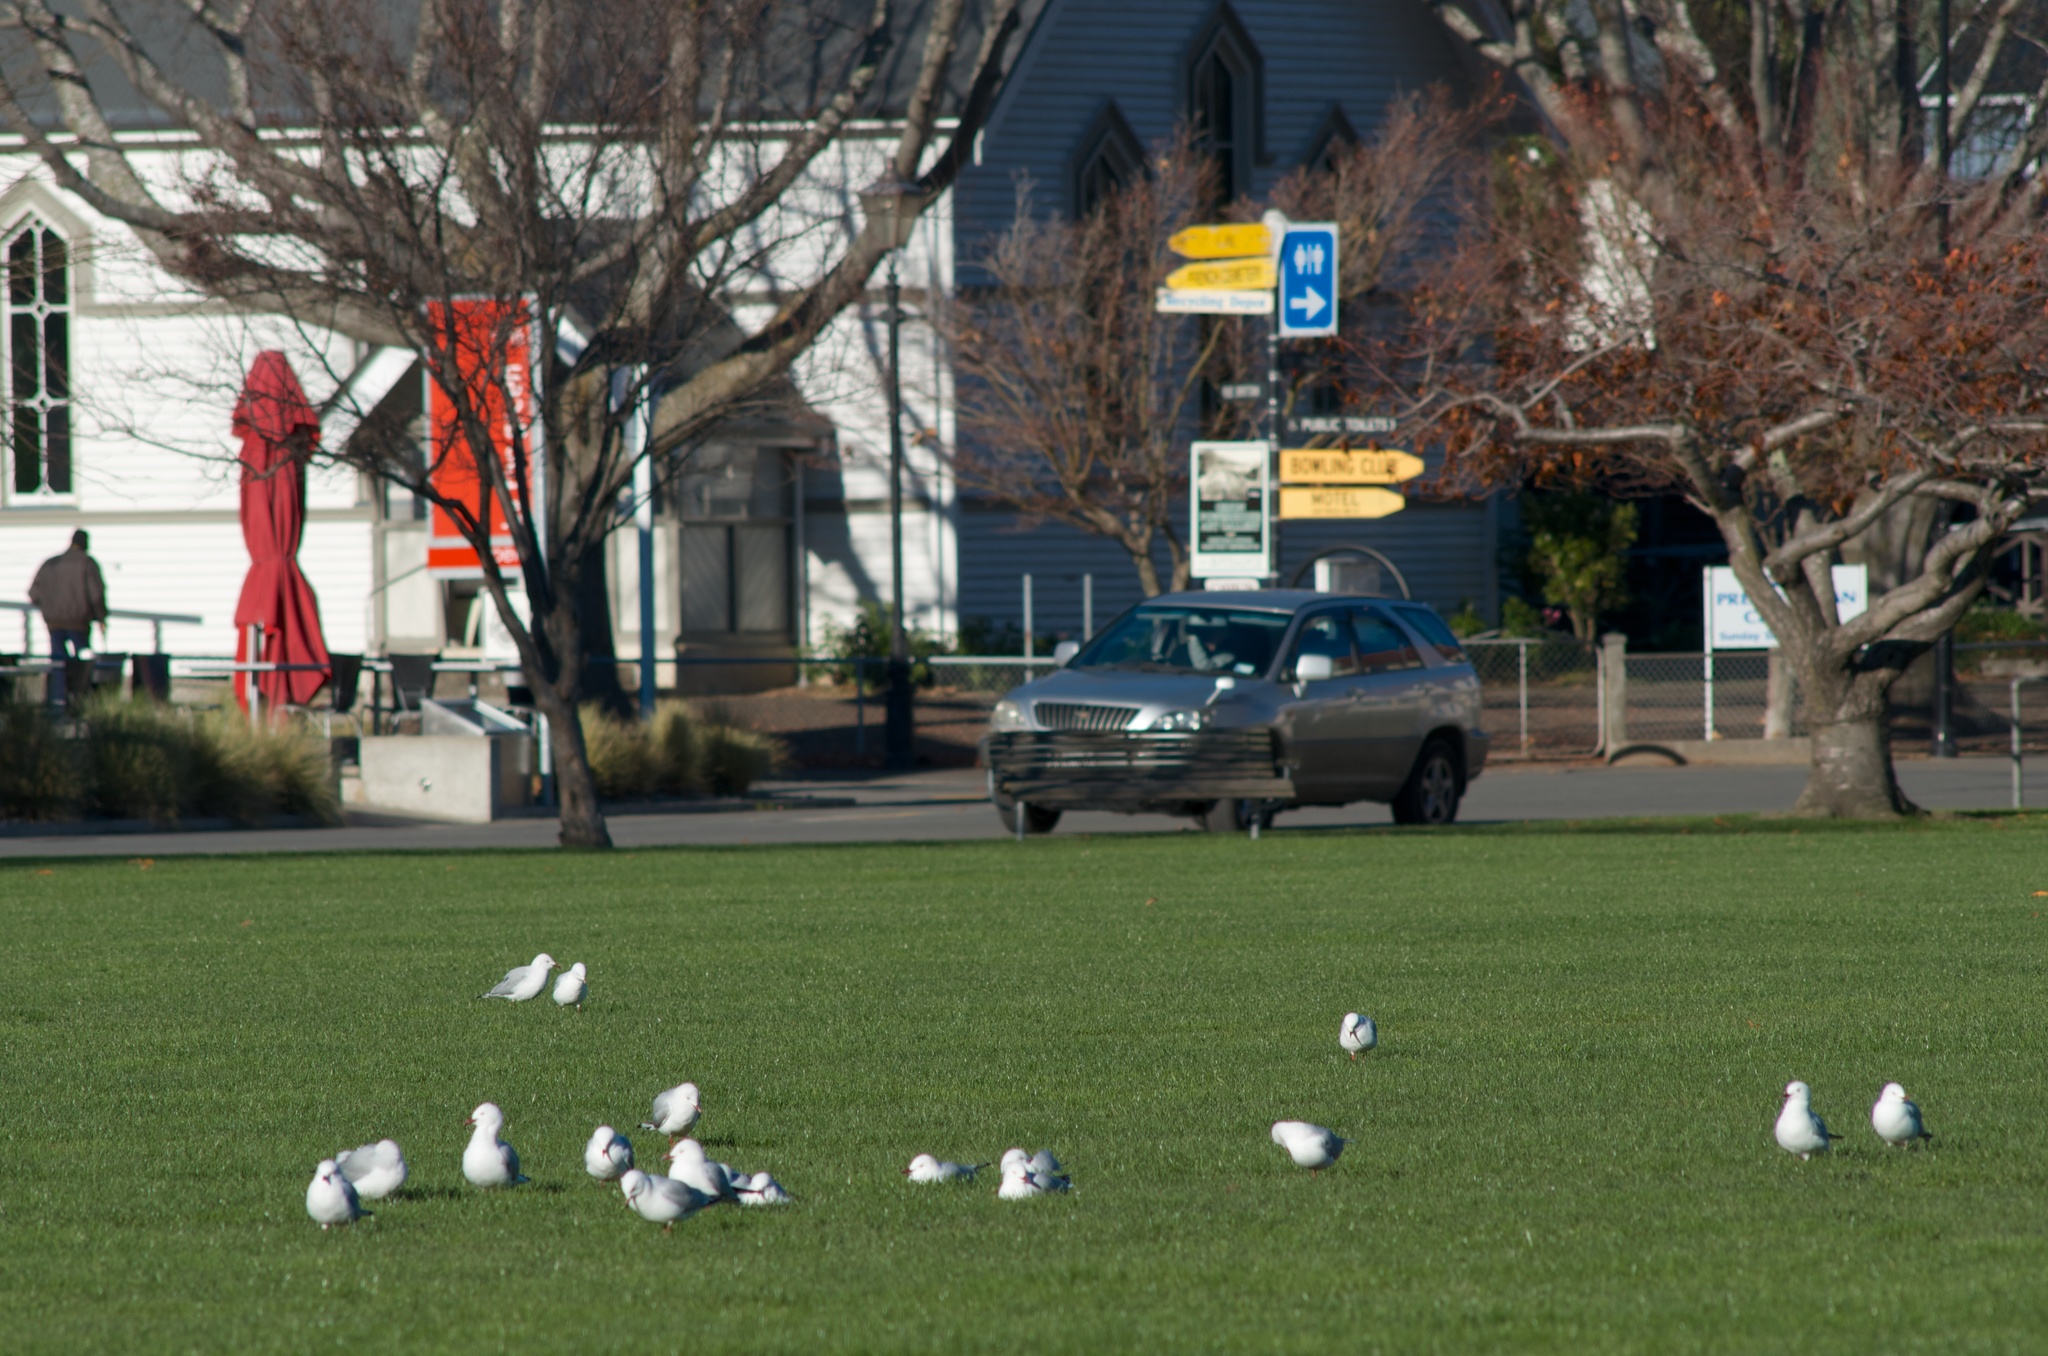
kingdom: Animalia
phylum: Chordata
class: Aves
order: Charadriiformes
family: Laridae
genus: Chroicocephalus
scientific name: Chroicocephalus novaehollandiae
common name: Silver gull
